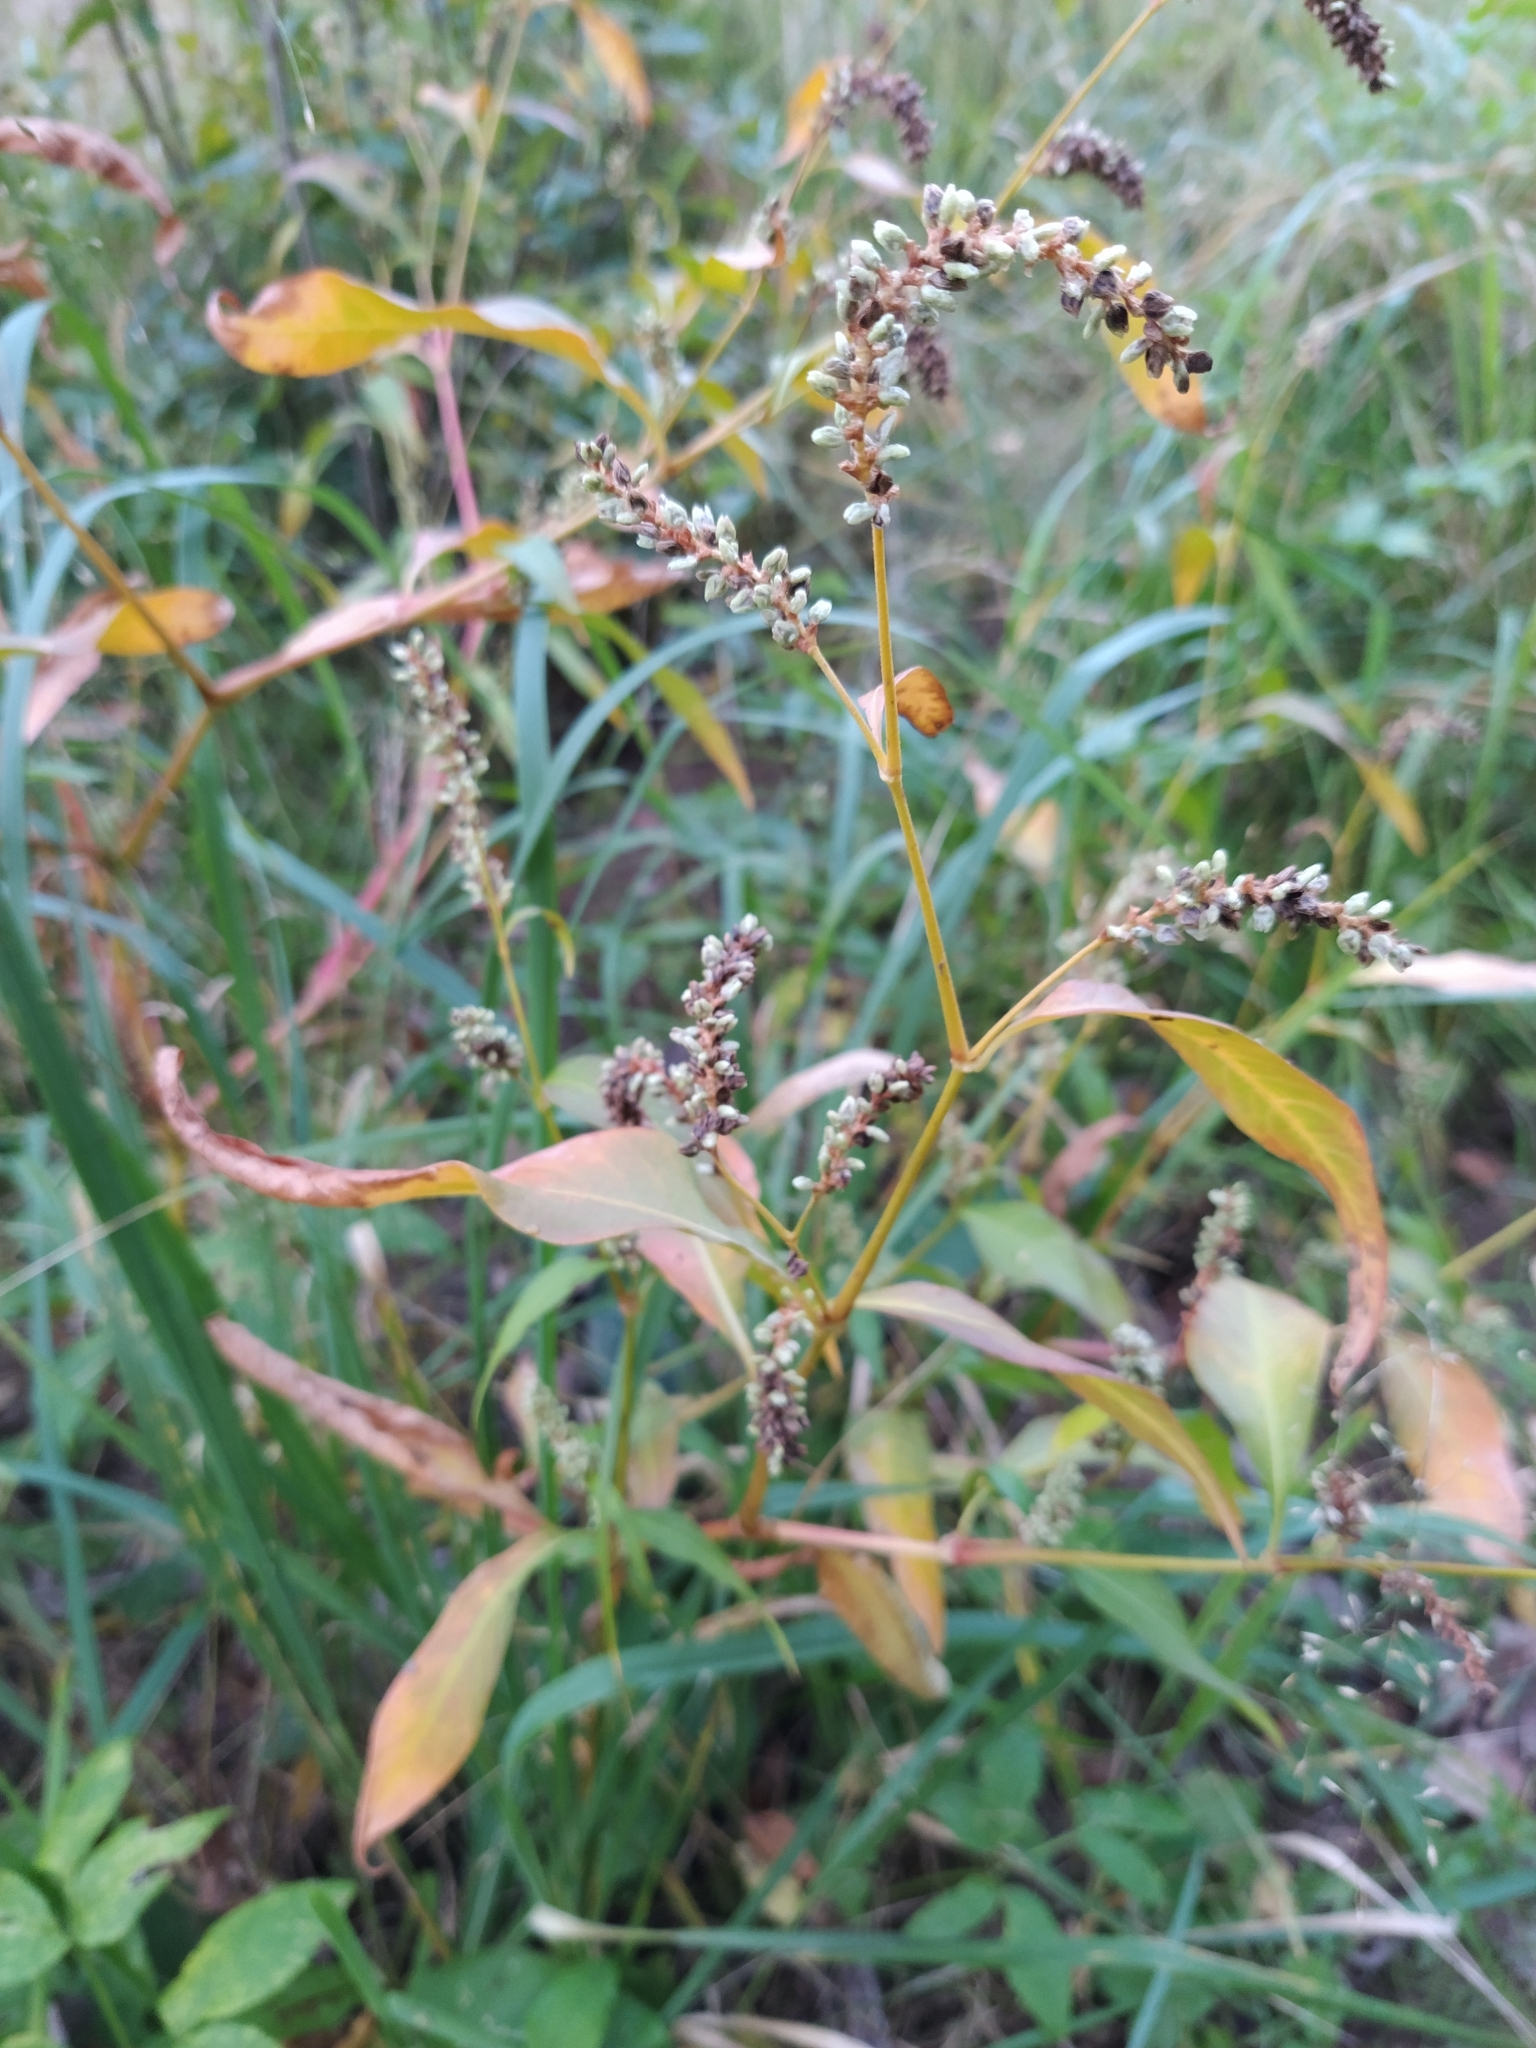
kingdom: Plantae
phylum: Tracheophyta
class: Magnoliopsida
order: Caryophyllales
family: Polygonaceae
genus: Persicaria
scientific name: Persicaria lapathifolia
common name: Curlytop knotweed
